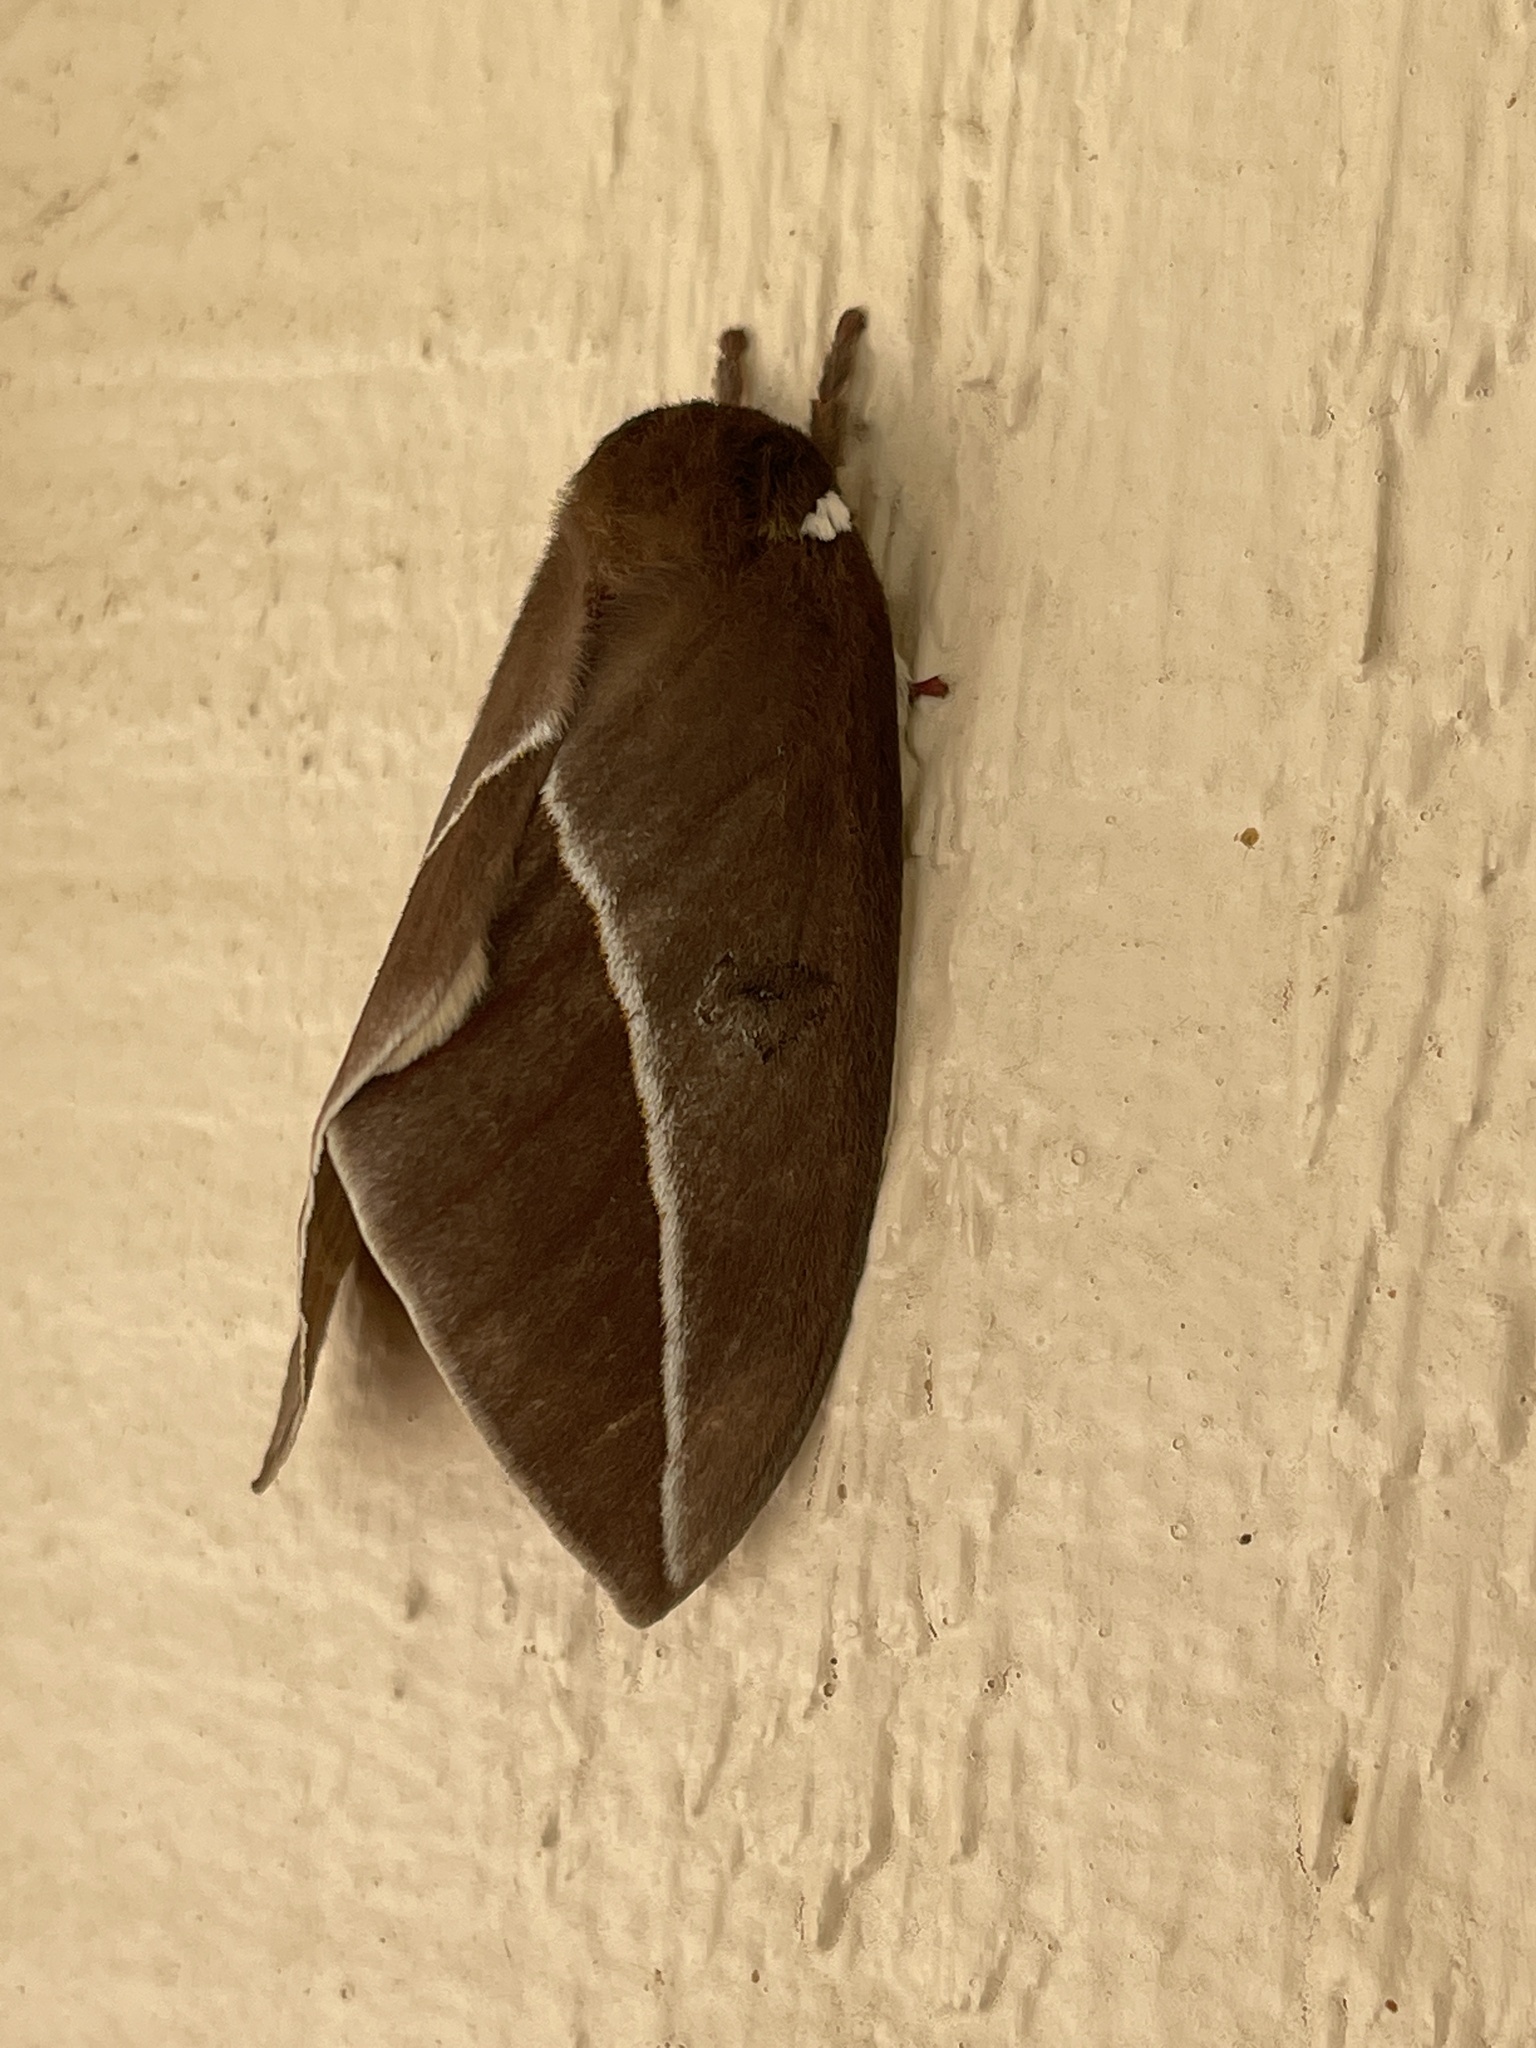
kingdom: Animalia
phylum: Arthropoda
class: Insecta
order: Lepidoptera
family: Saturniidae
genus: Automeris
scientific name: Automeris zephyria
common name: Zephyr eyed silkmoth
